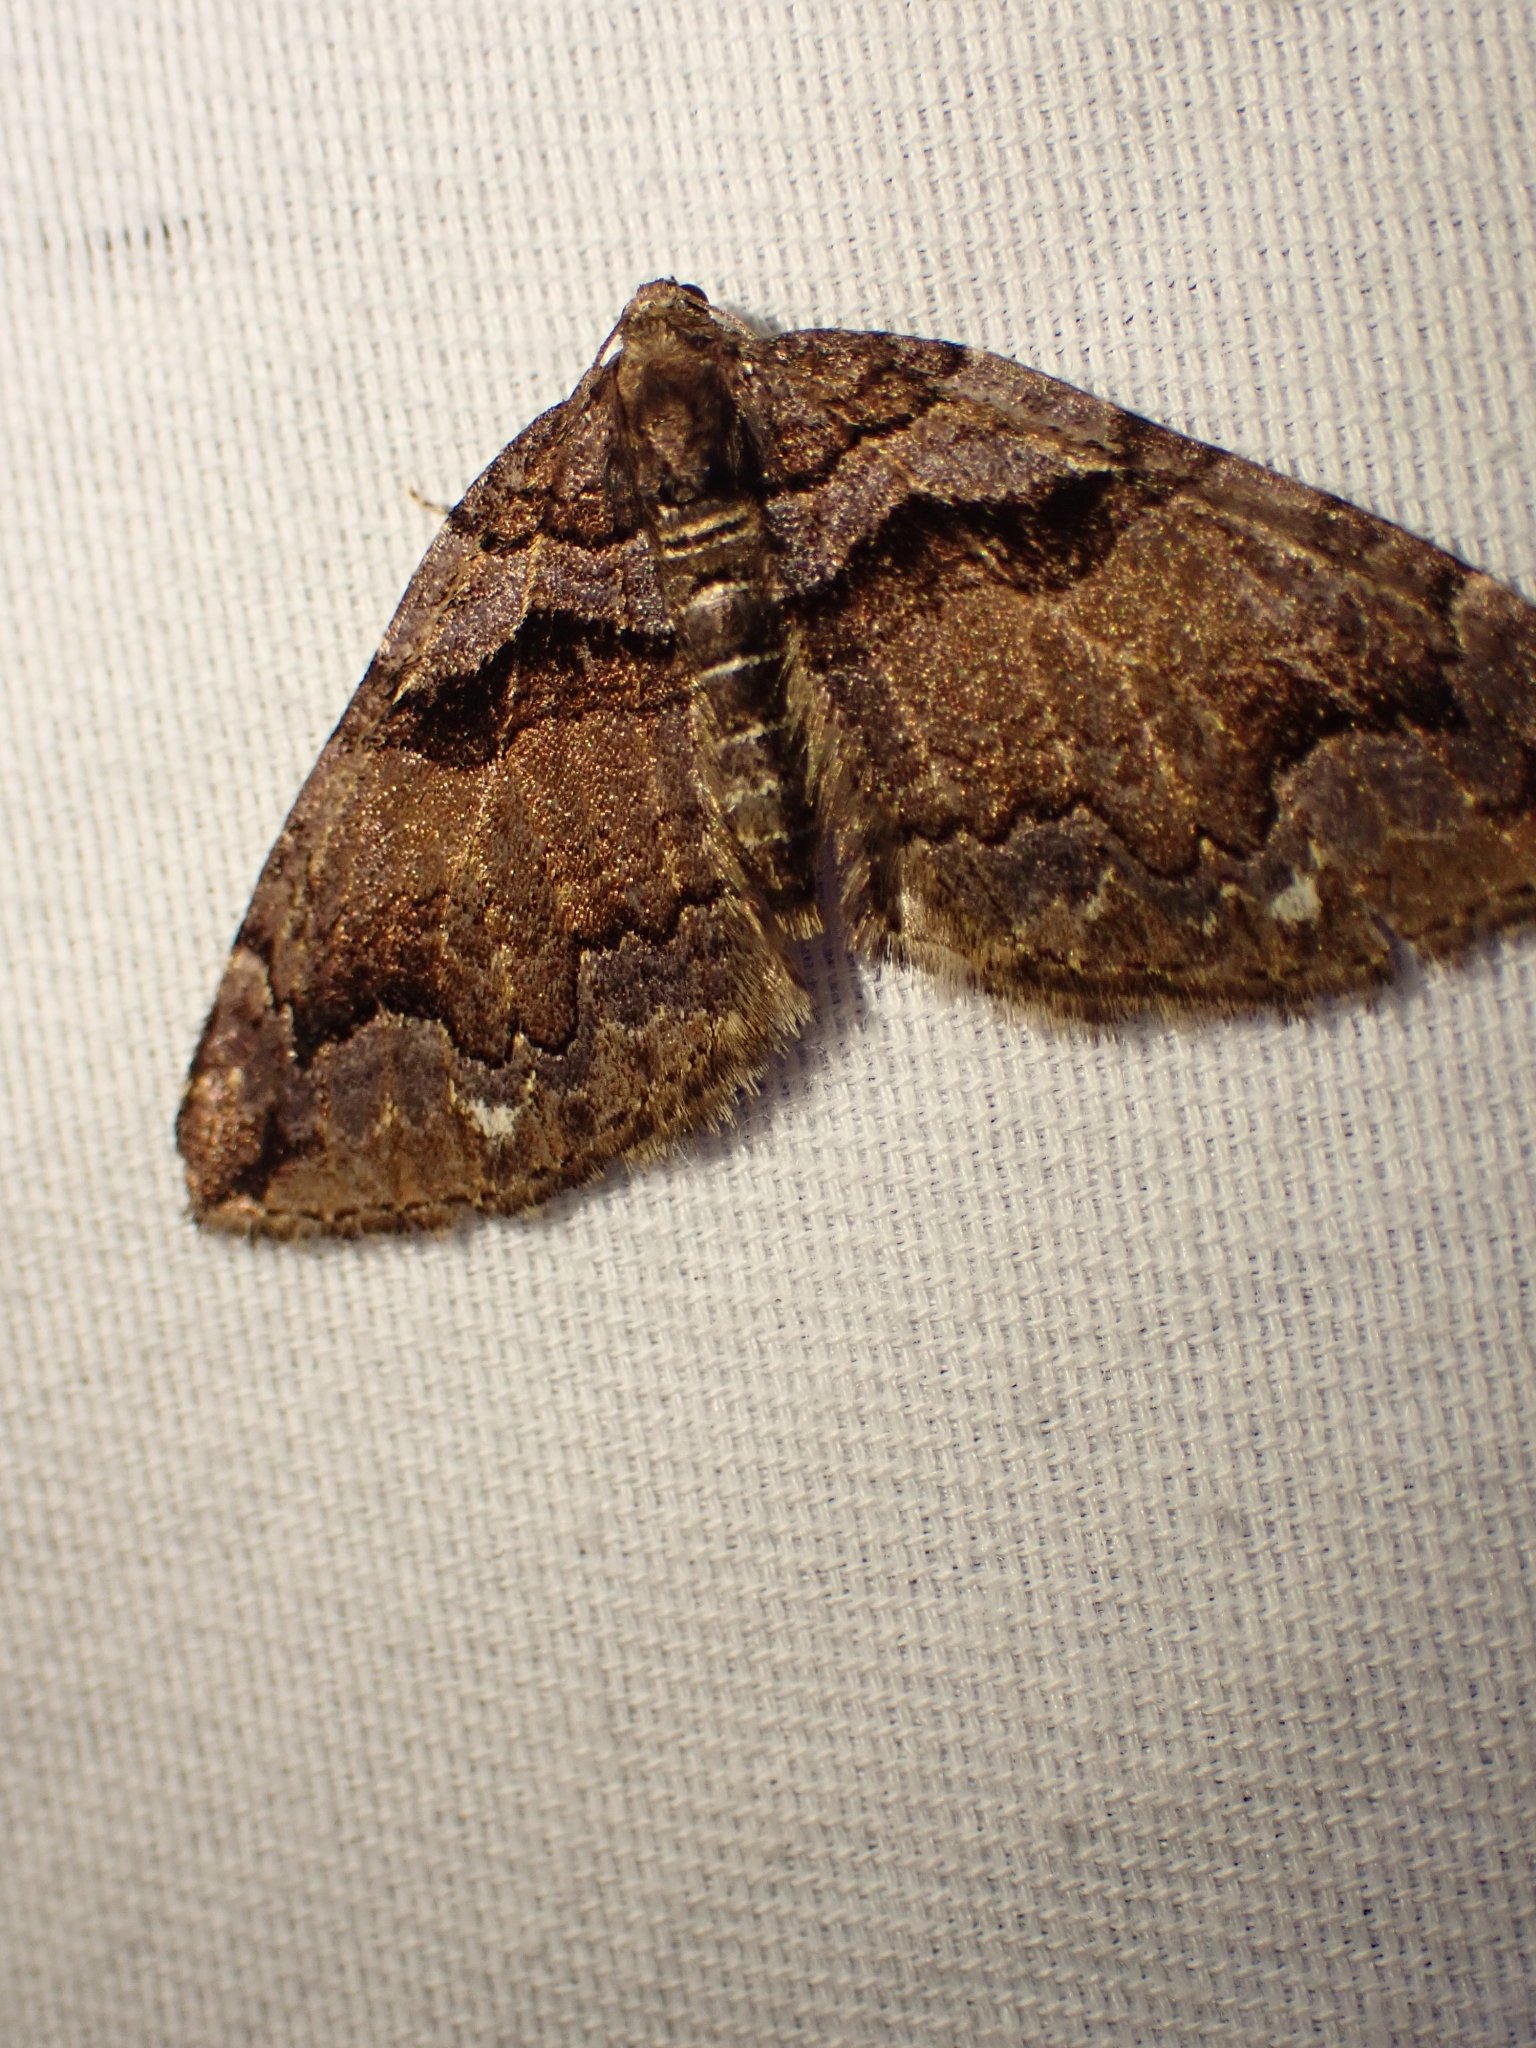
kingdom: Animalia
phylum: Arthropoda
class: Insecta
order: Lepidoptera
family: Geometridae
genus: Anticlea
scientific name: Anticlea vasiliata
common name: Variable carpet
